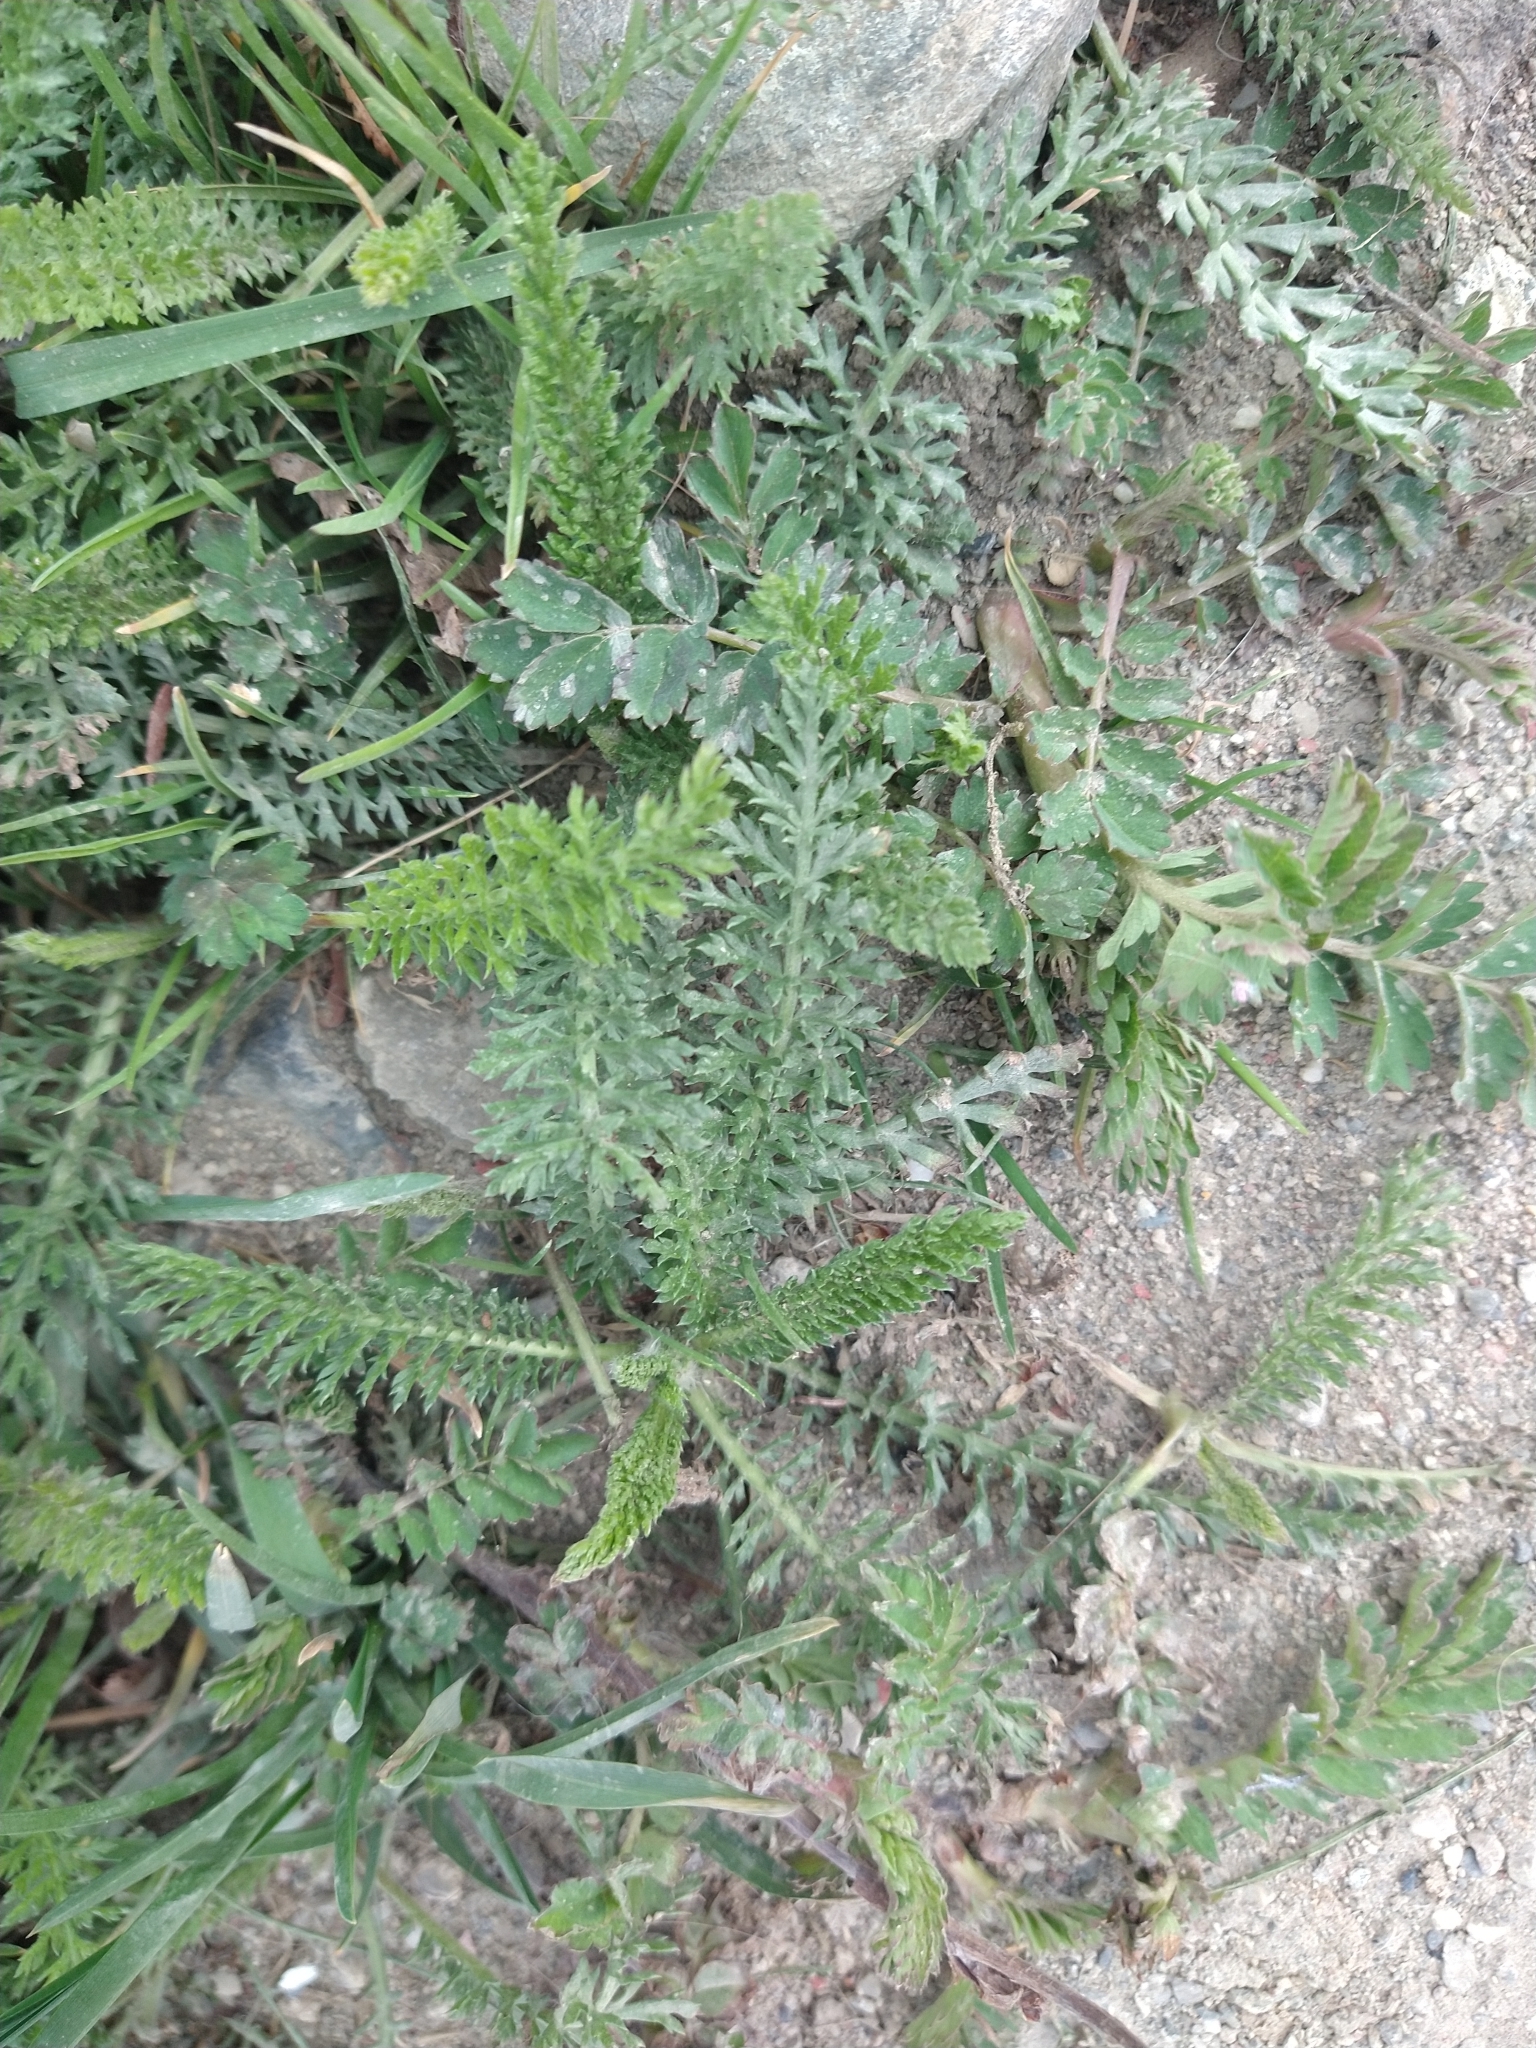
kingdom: Plantae
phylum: Tracheophyta
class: Magnoliopsida
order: Asterales
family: Asteraceae
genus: Achillea
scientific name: Achillea millefolium
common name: Yarrow
